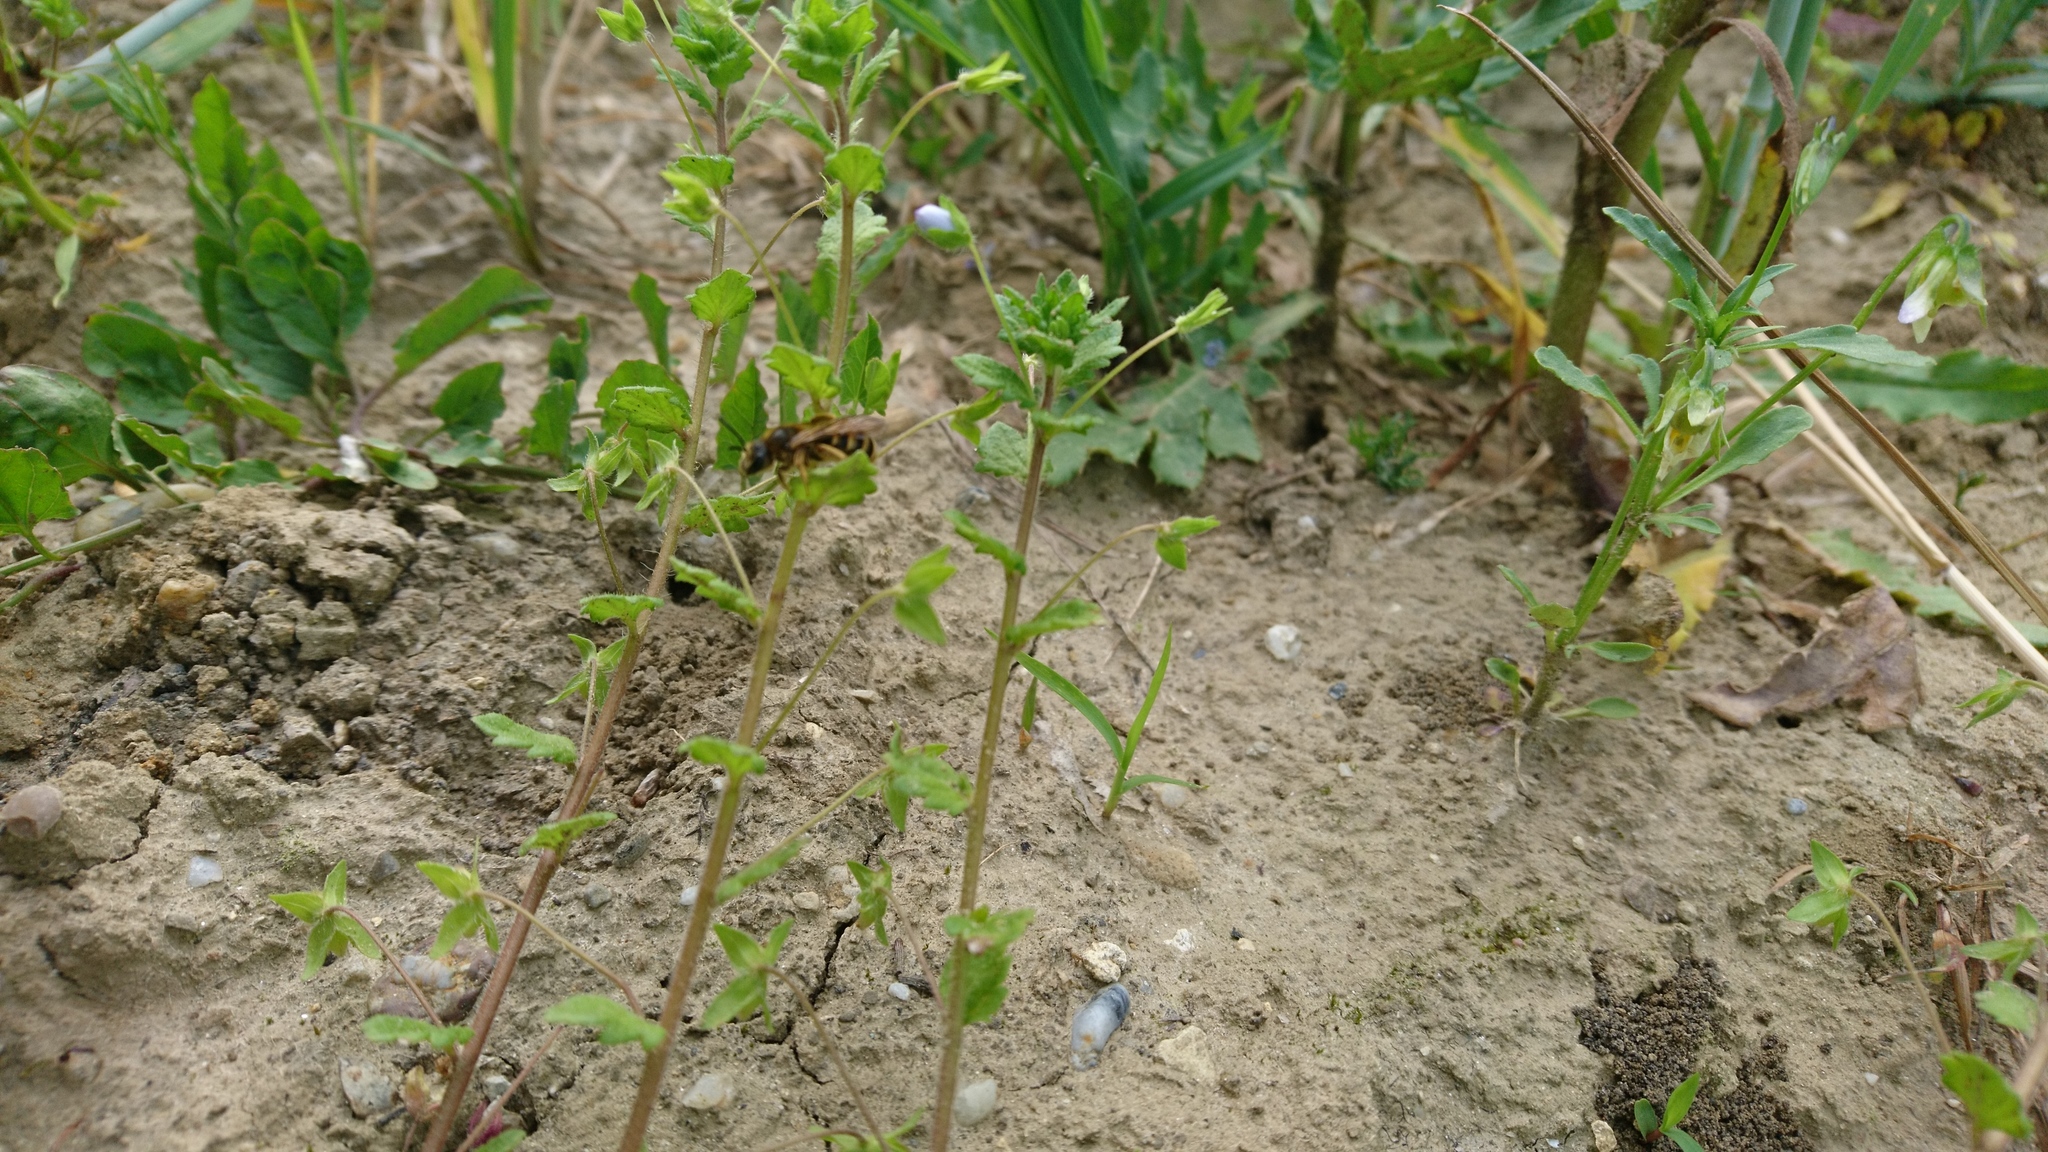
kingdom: Animalia
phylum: Arthropoda
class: Insecta
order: Hymenoptera
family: Halictidae
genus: Halictus
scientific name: Halictus scabiosae
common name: Great banded furrow bee
